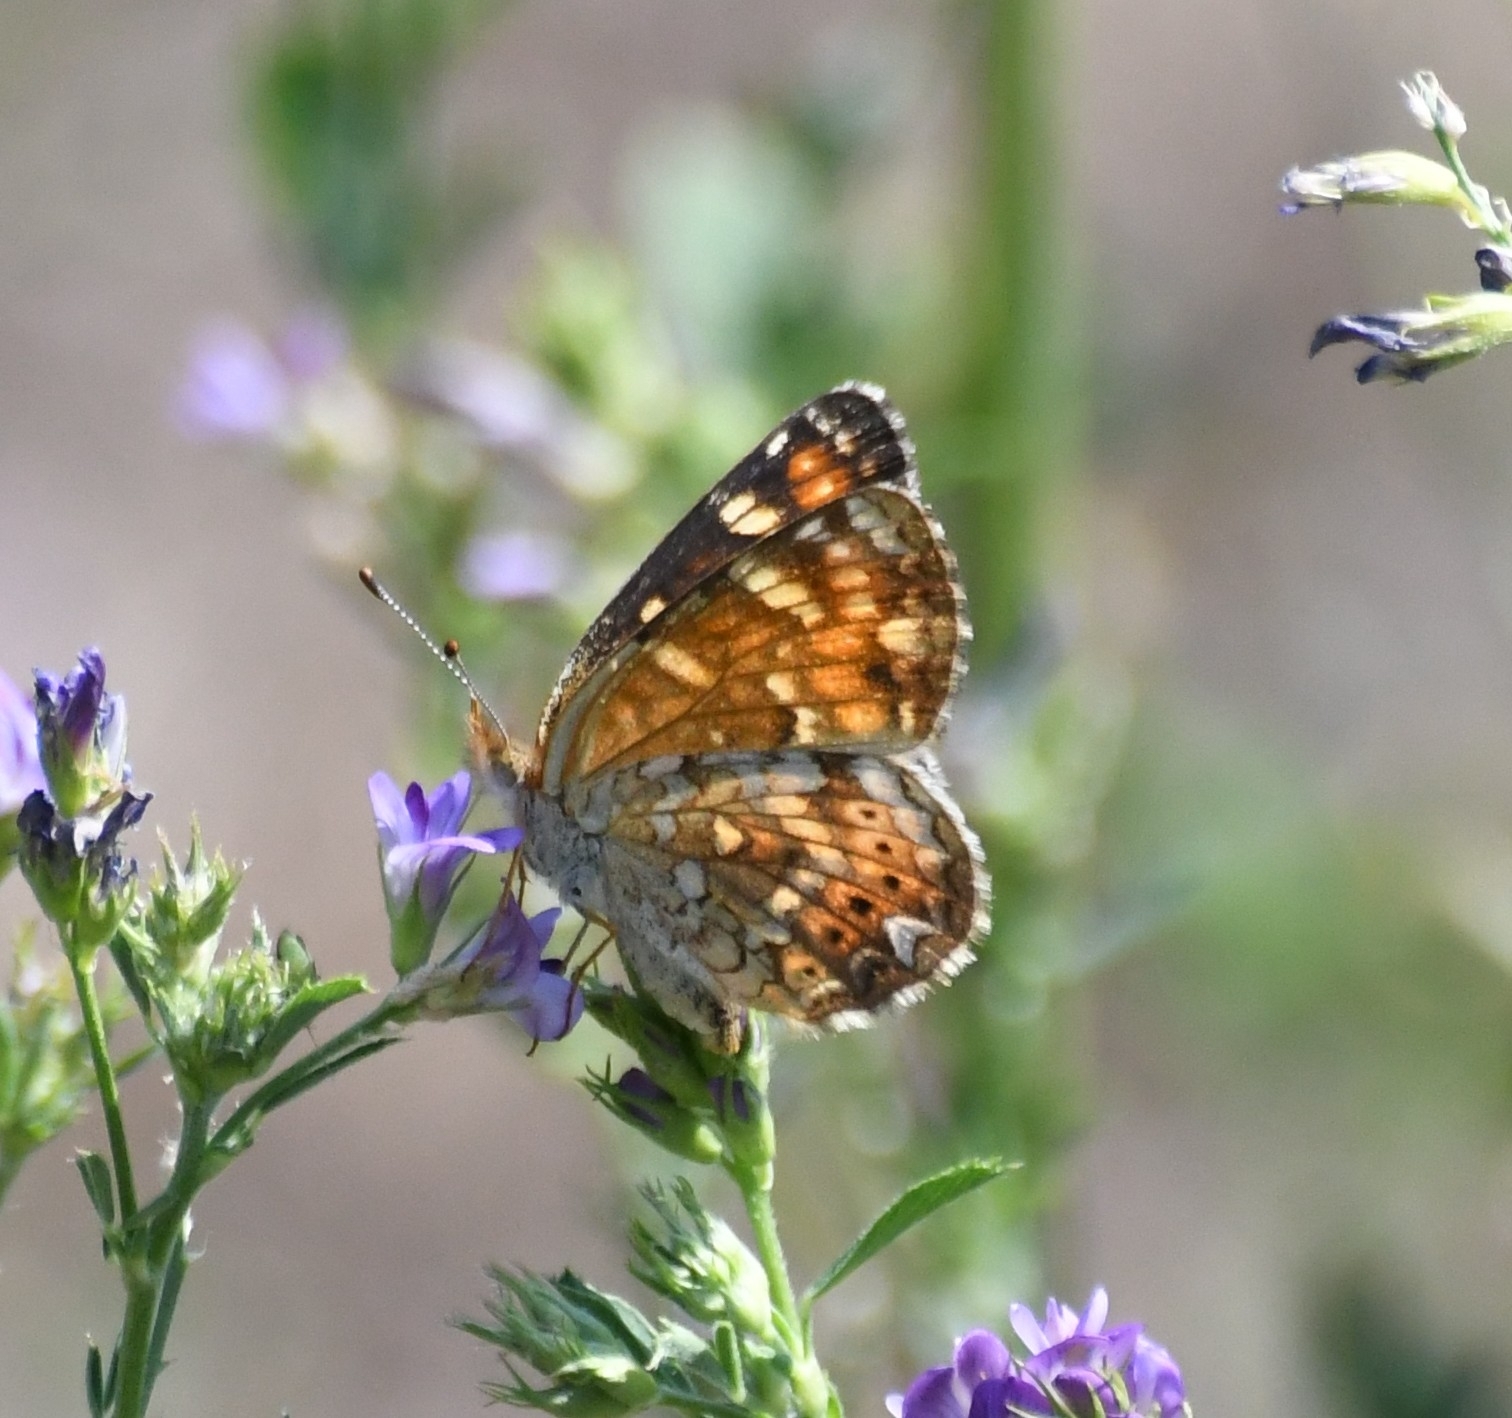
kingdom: Animalia
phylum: Arthropoda
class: Insecta
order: Lepidoptera
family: Nymphalidae
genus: Phyciodes
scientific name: Phyciodes tharos
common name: Pearl crescent
